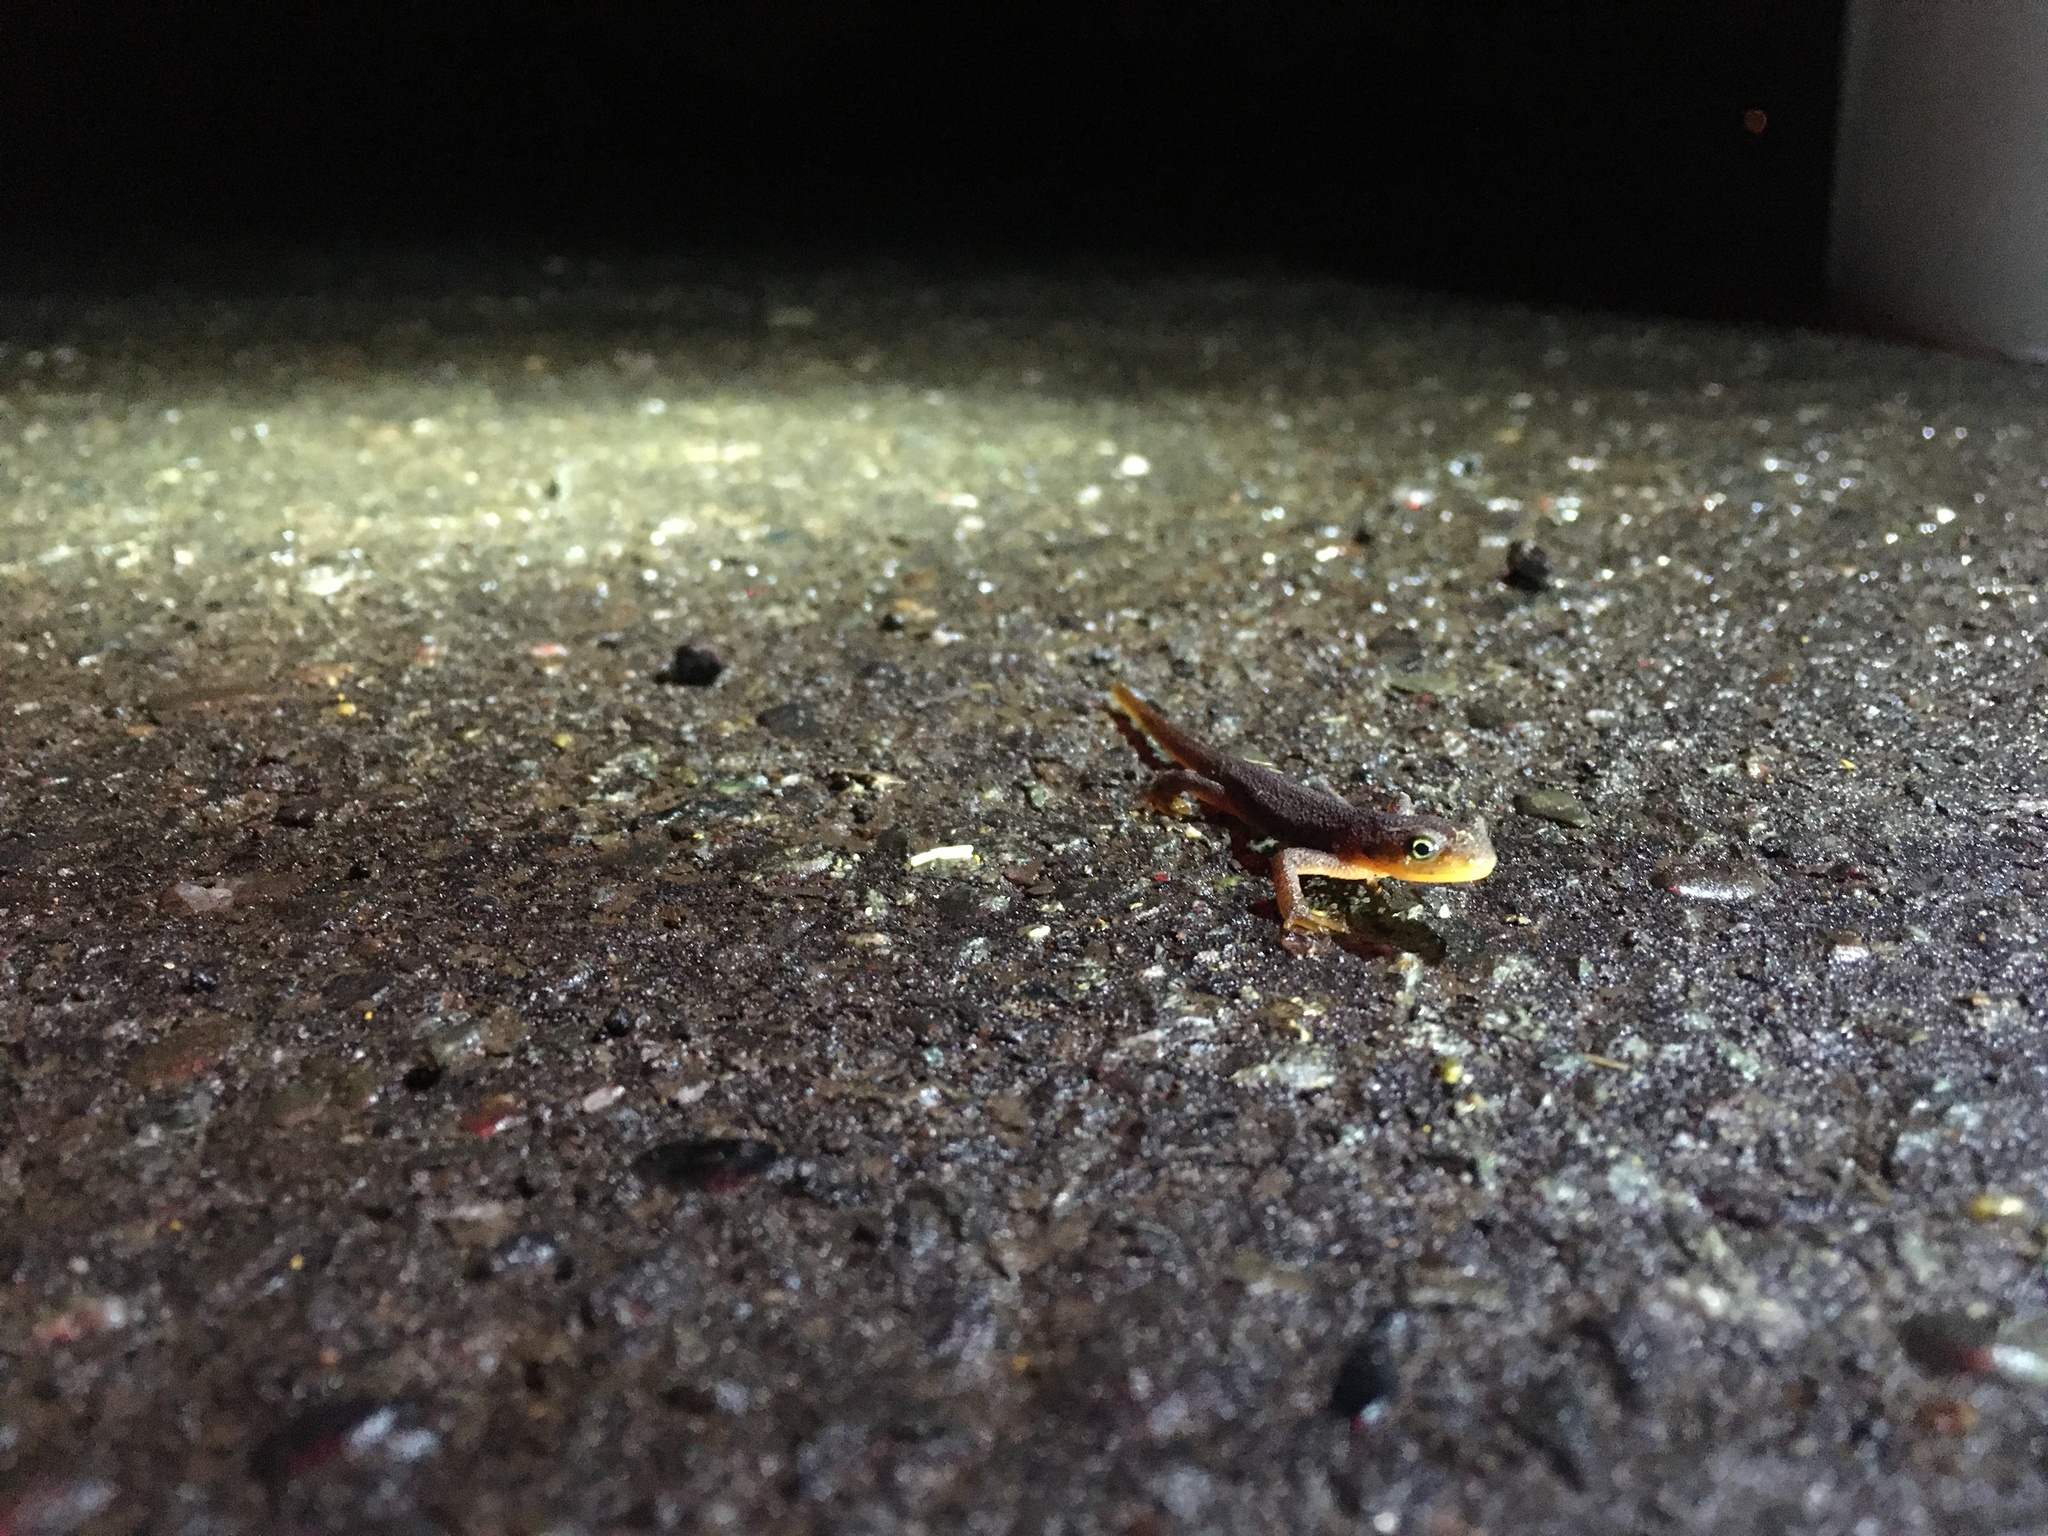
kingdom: Animalia
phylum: Chordata
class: Amphibia
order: Caudata
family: Salamandridae
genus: Taricha
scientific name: Taricha torosa
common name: California newt
